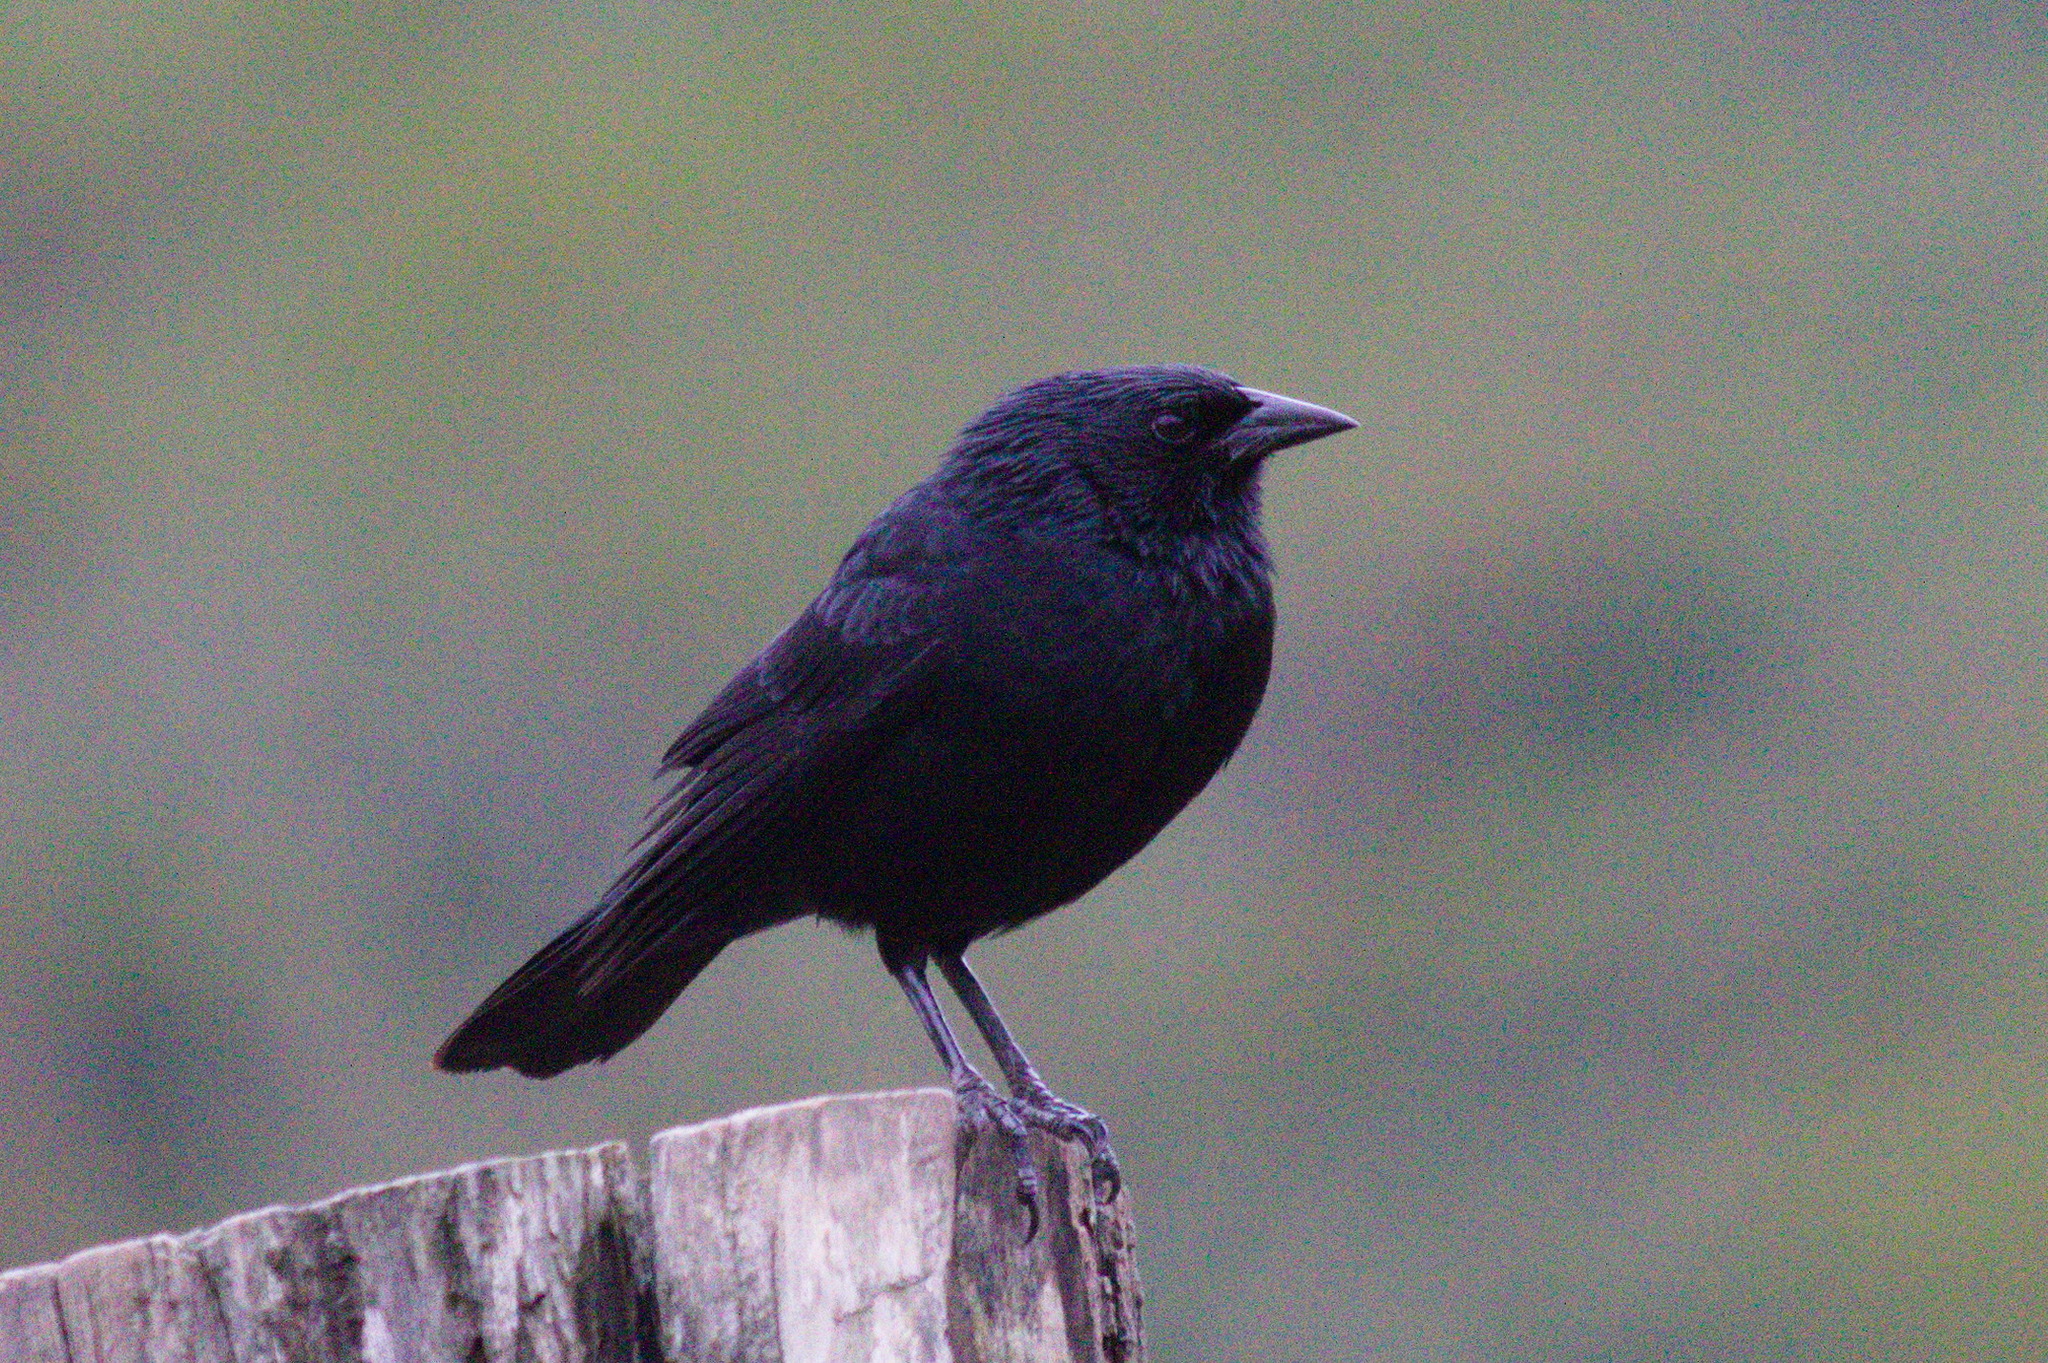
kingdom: Animalia
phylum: Chordata
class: Aves
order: Passeriformes
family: Icteridae
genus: Gnorimopsar
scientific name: Gnorimopsar chopi
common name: Chopi blackbird
